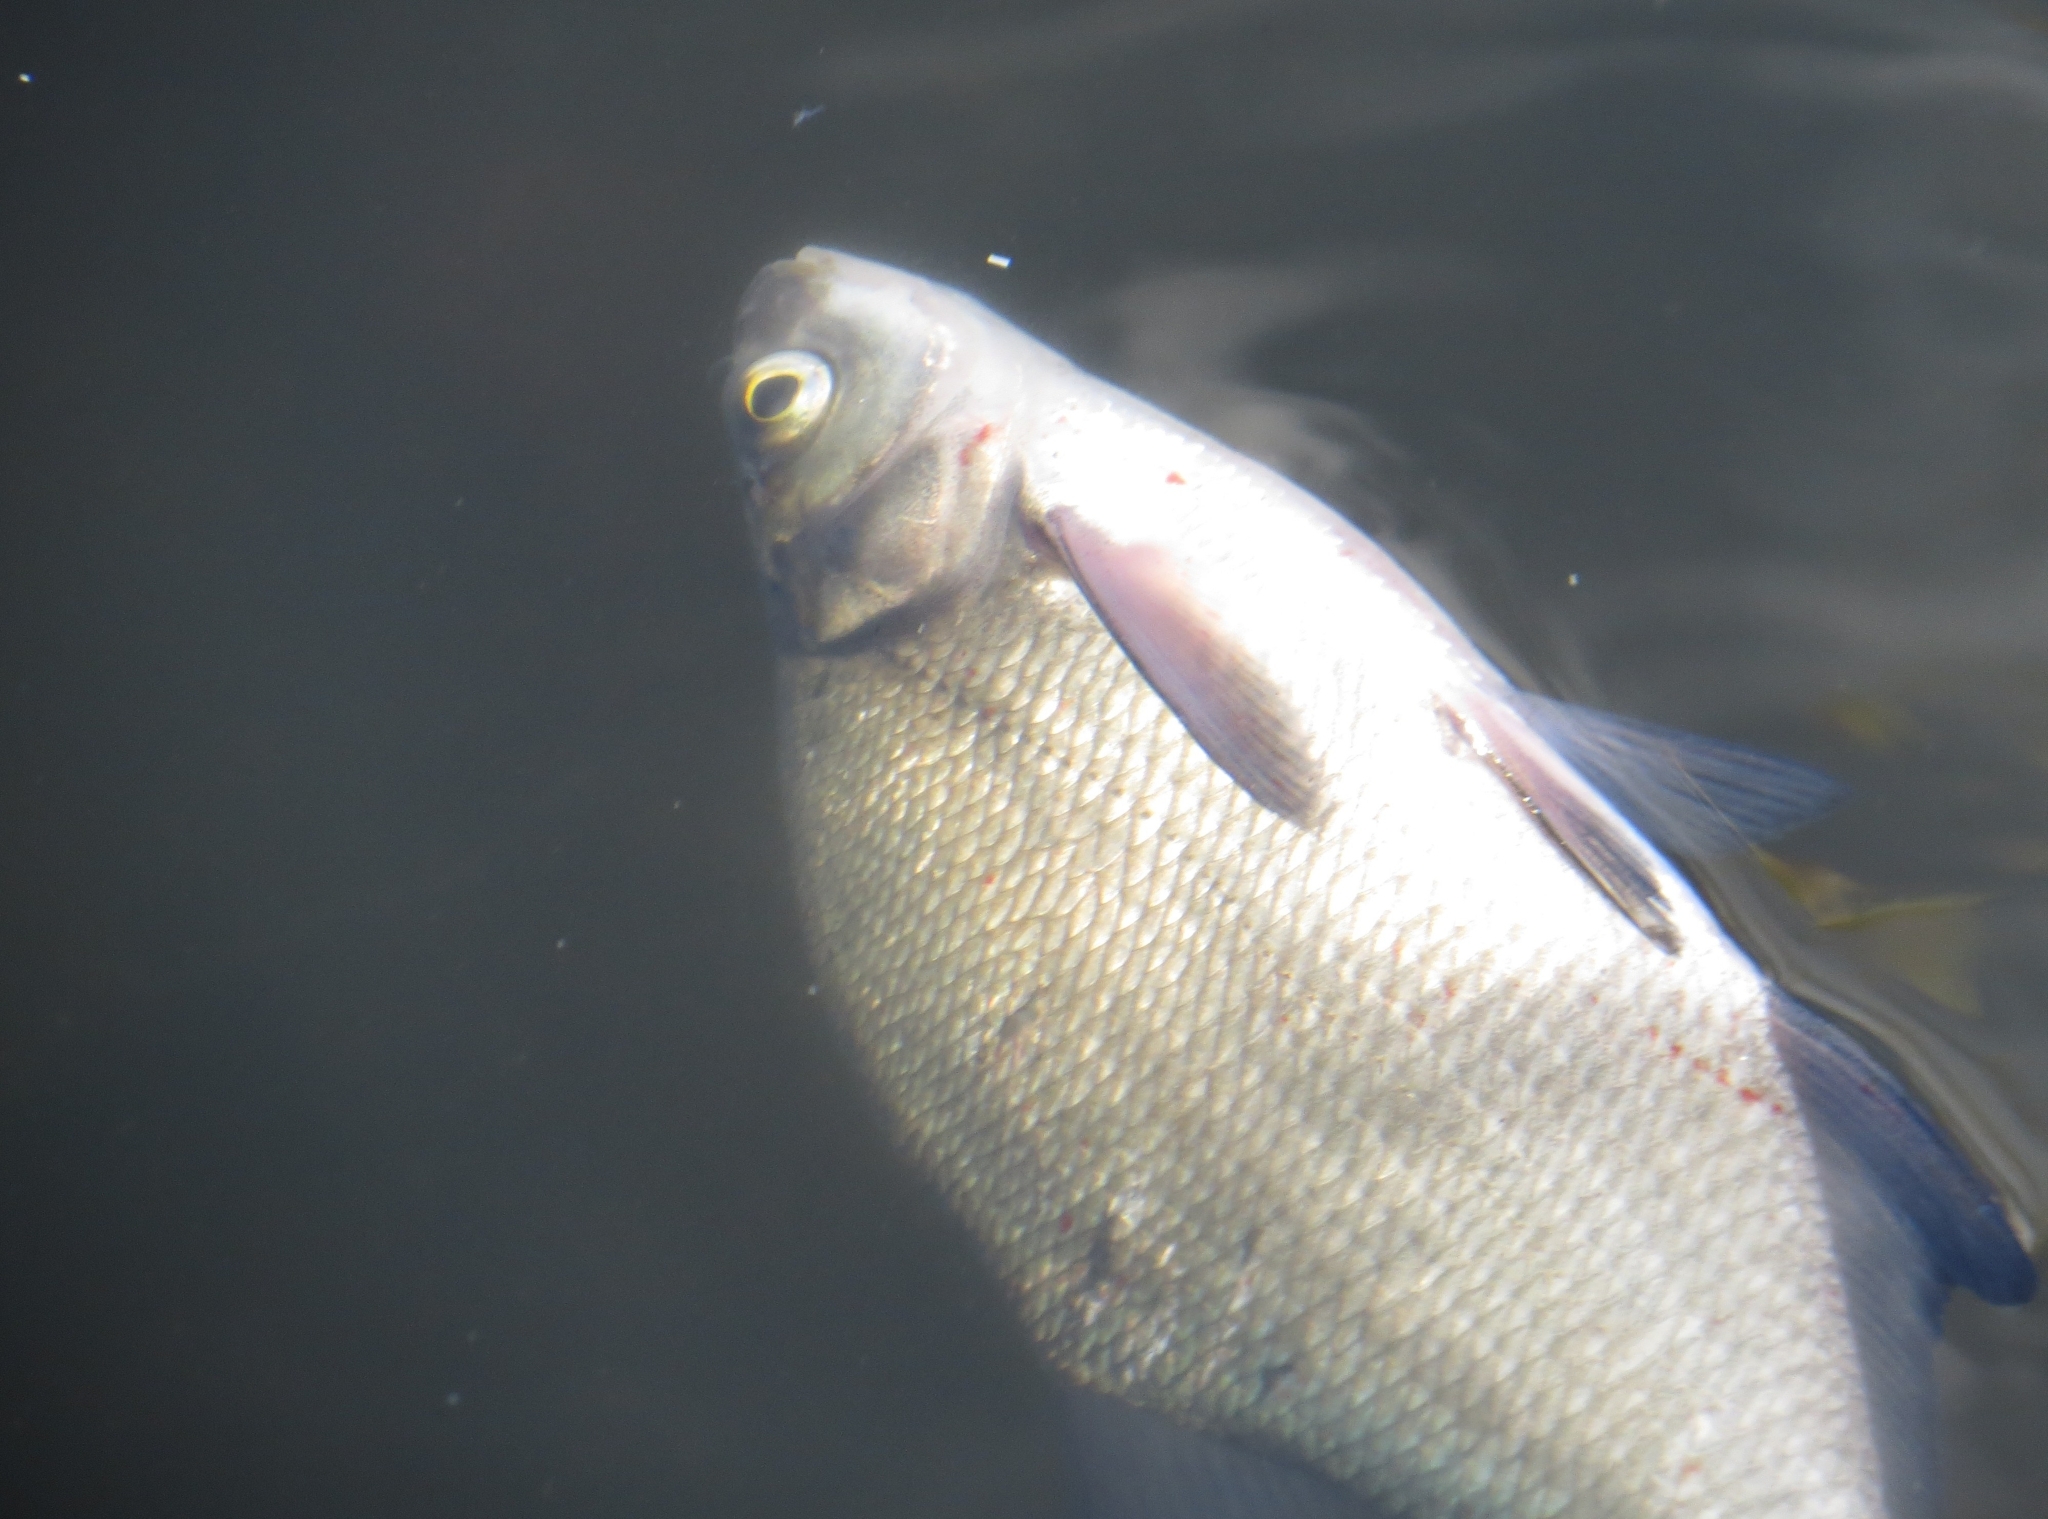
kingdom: Animalia
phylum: Chordata
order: Cypriniformes
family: Cyprinidae
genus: Abramis
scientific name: Abramis brama
